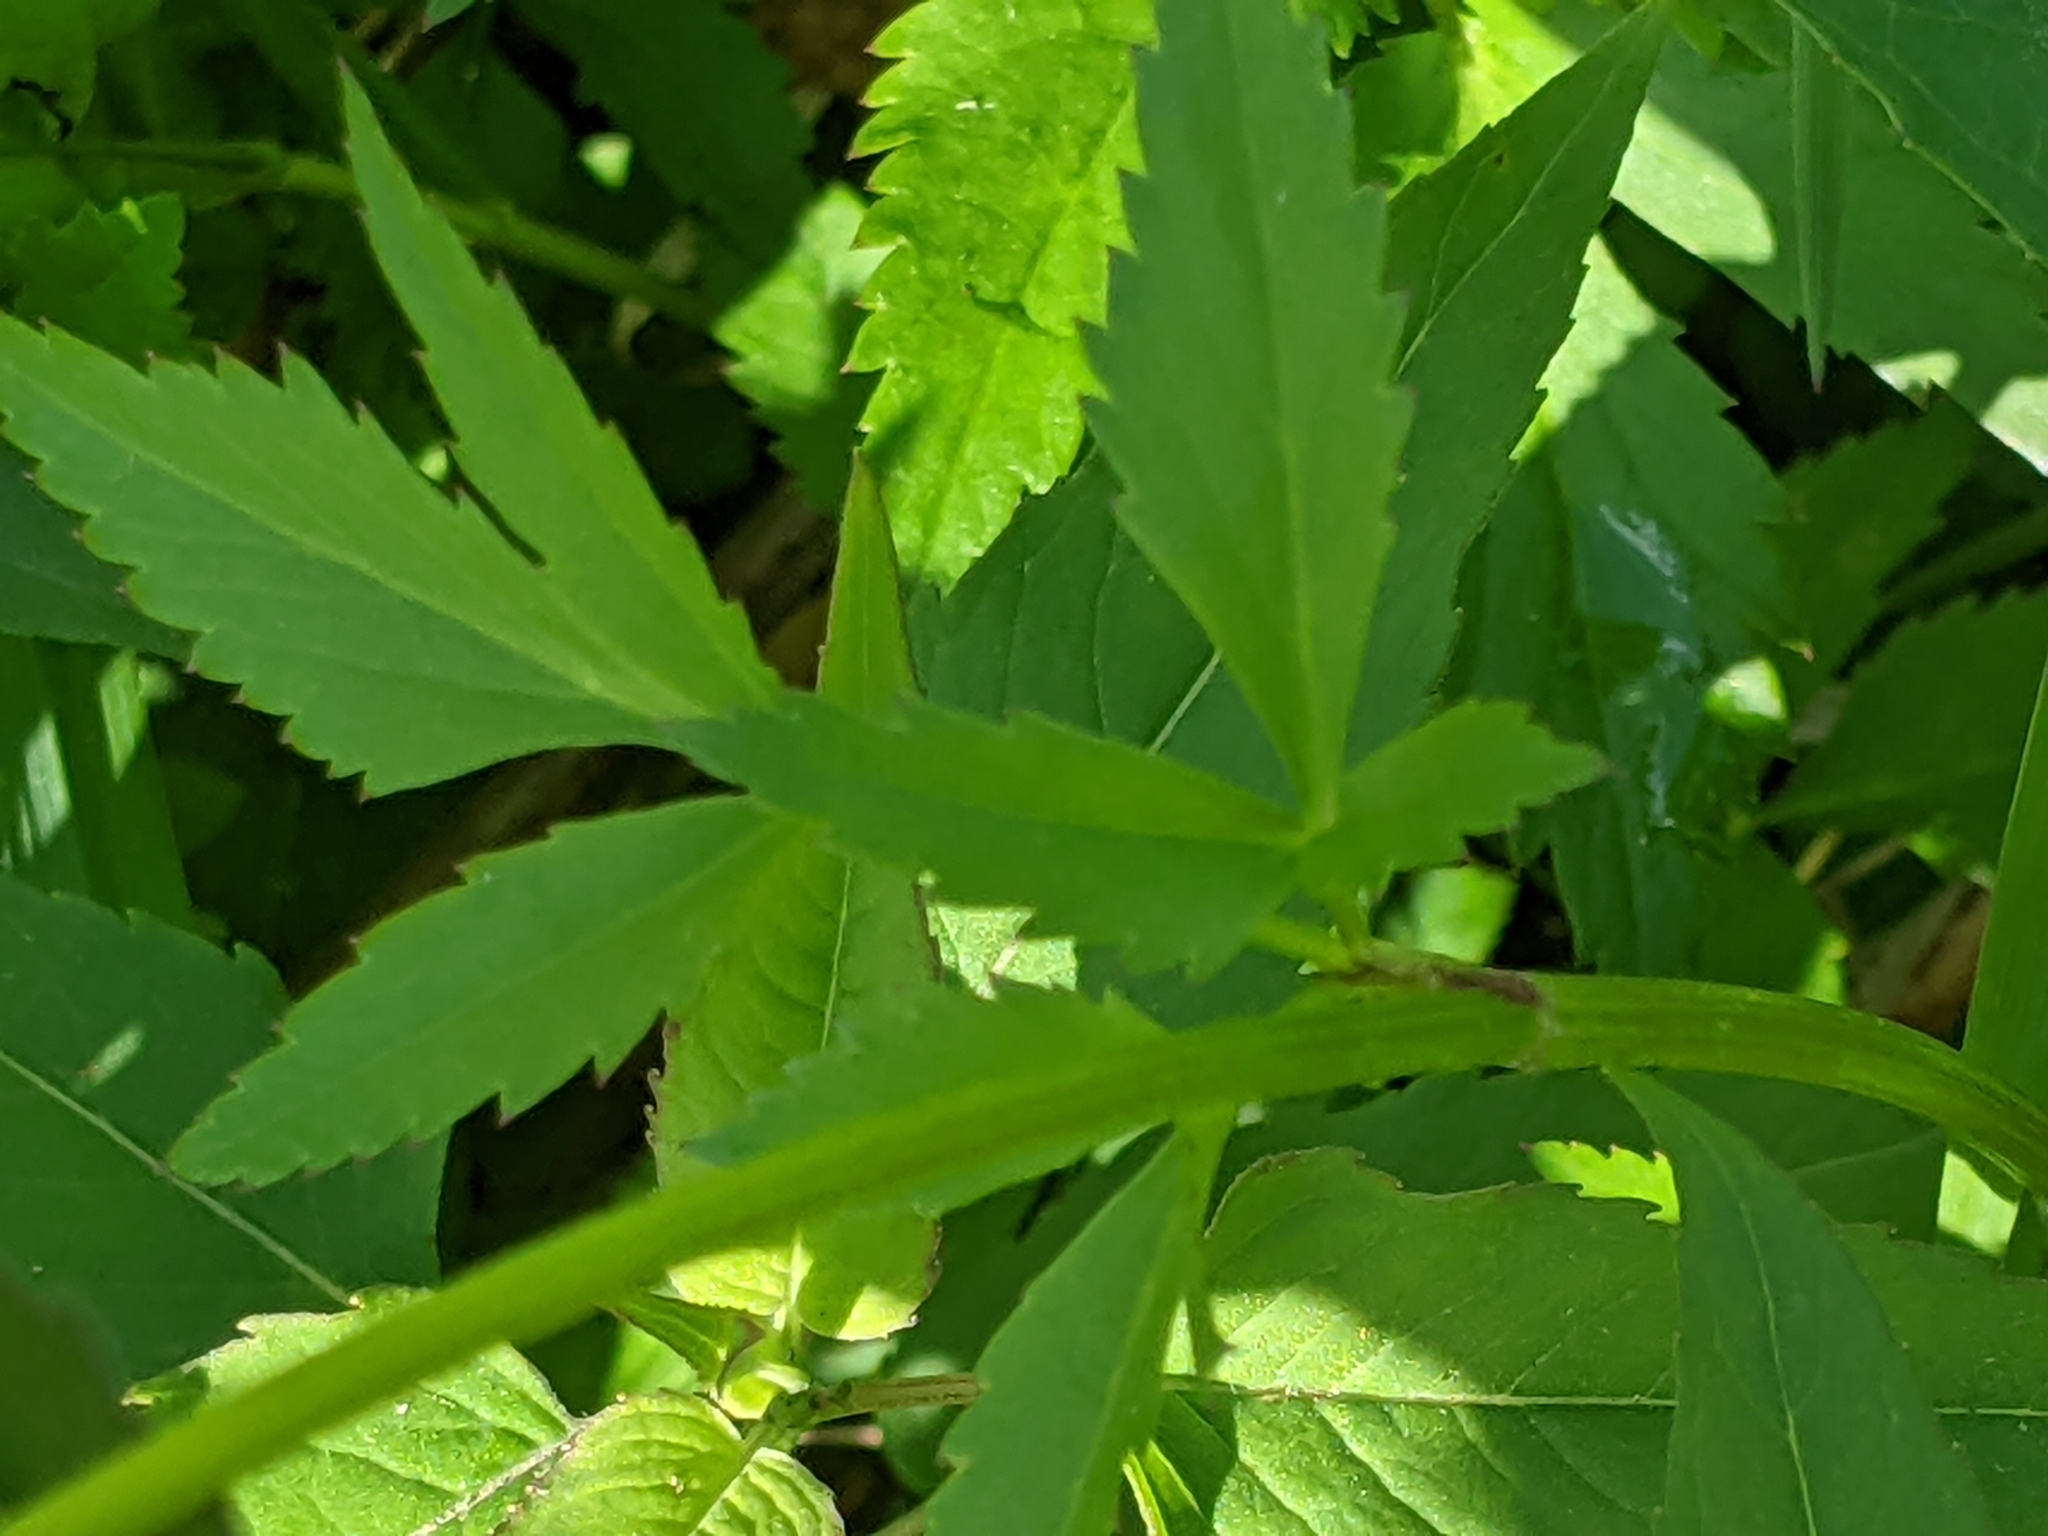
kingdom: Plantae
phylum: Tracheophyta
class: Magnoliopsida
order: Apiales
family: Apiaceae
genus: Zizia
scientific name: Zizia aurea
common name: Golden alexanders
